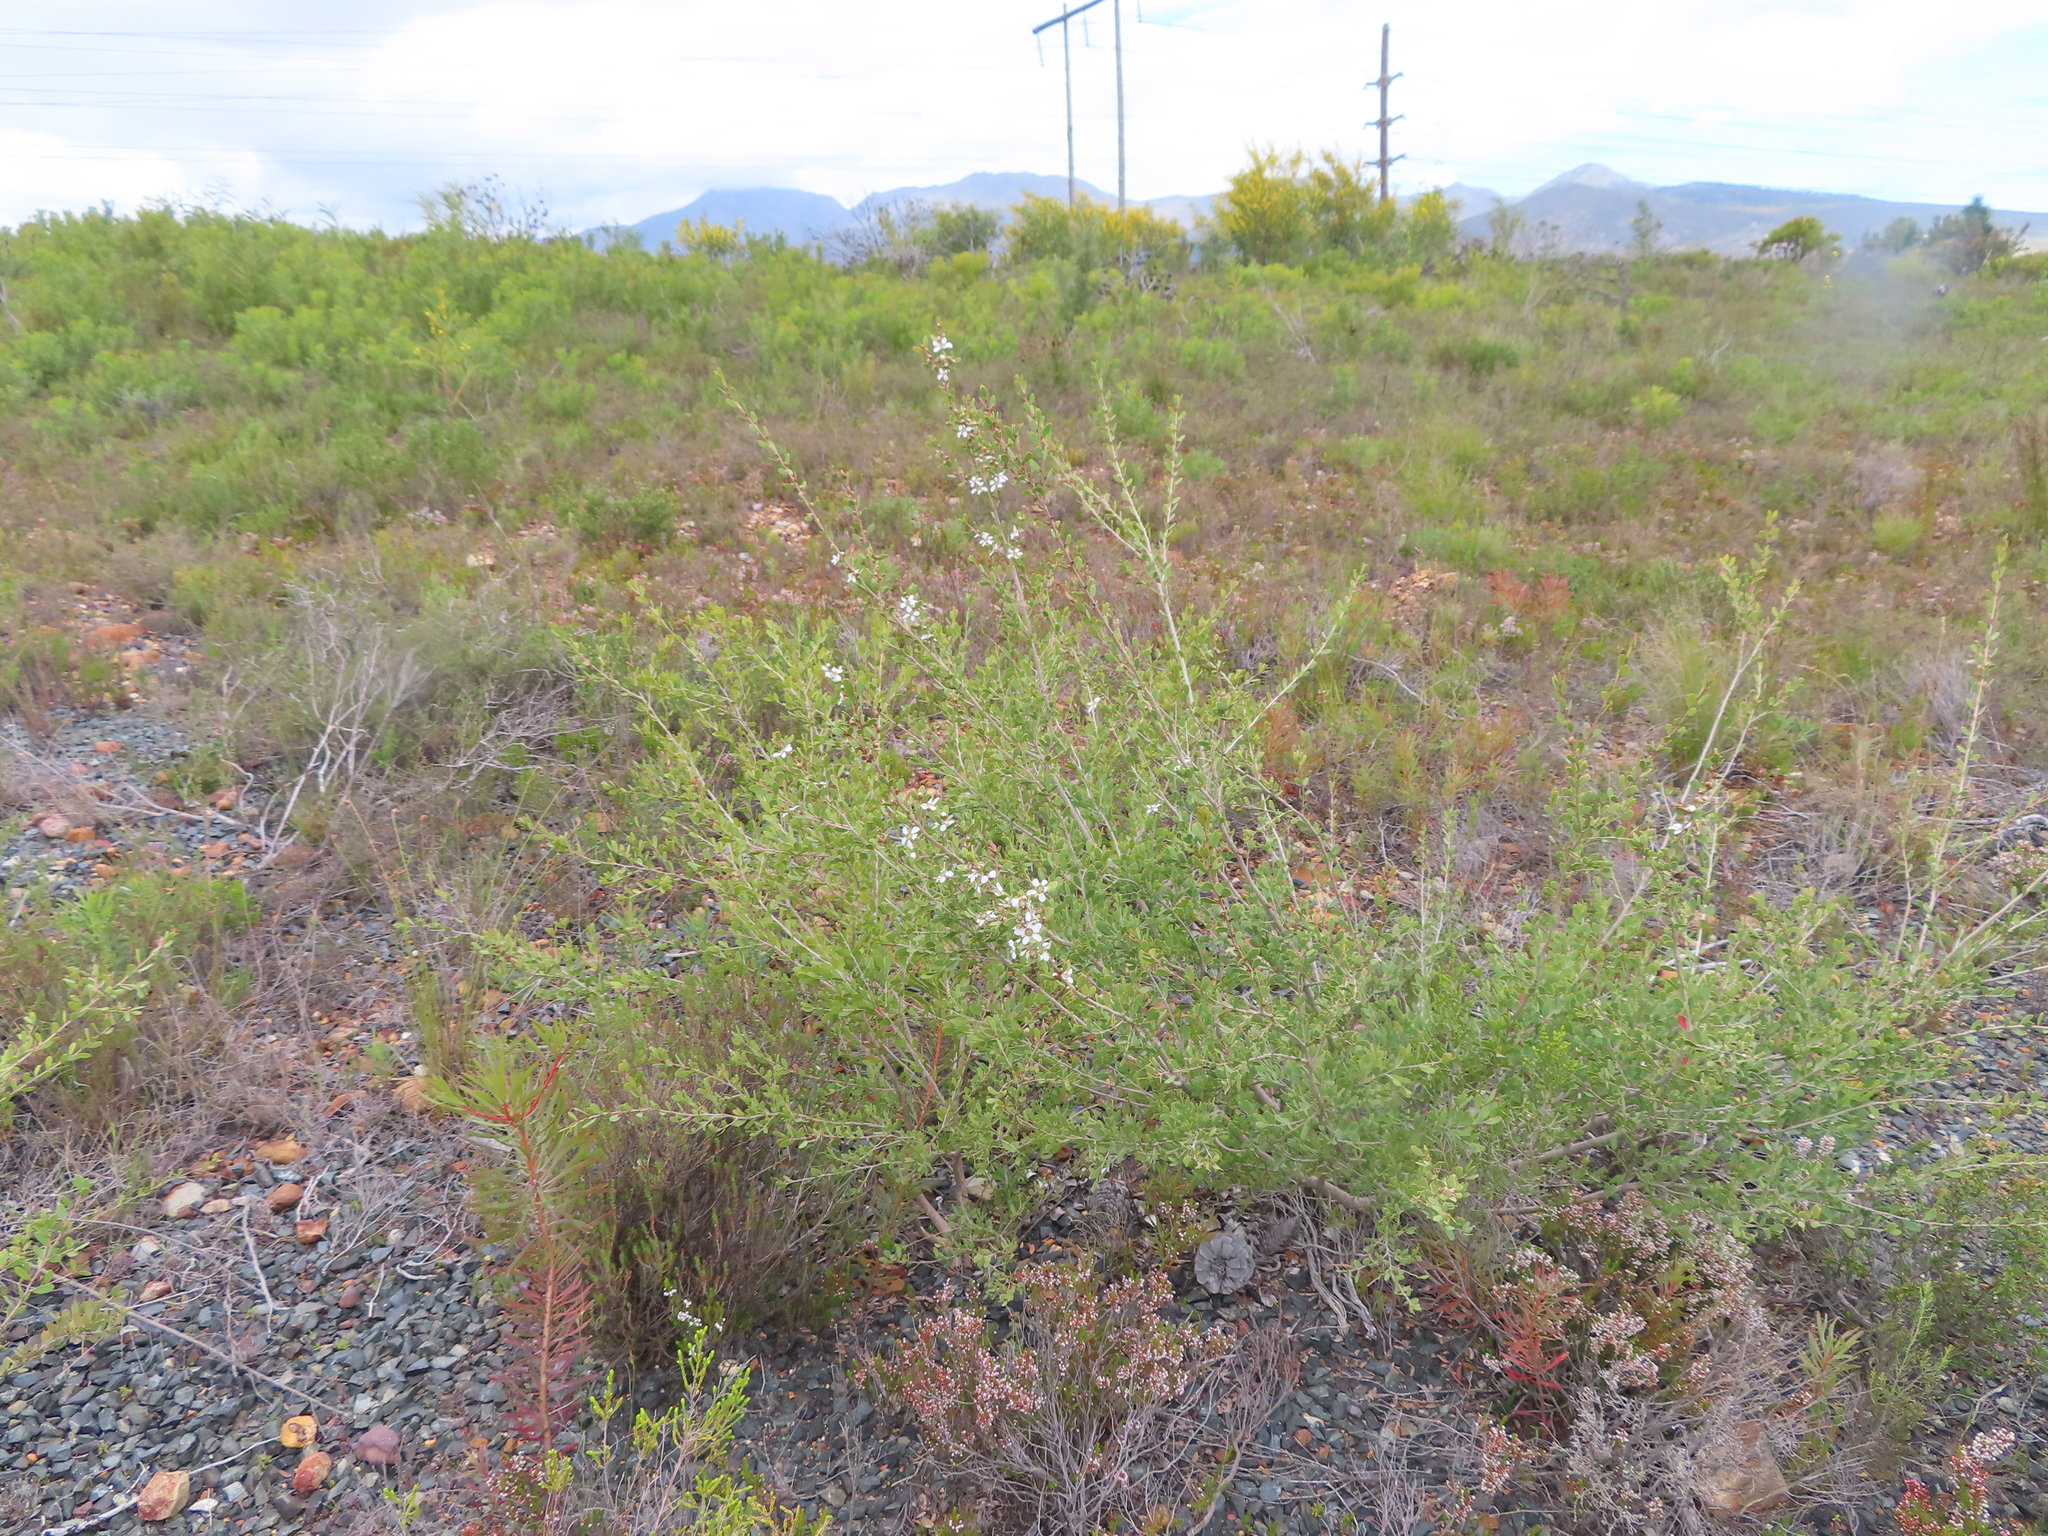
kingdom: Plantae
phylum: Tracheophyta
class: Magnoliopsida
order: Myrtales
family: Myrtaceae
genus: Leptospermum
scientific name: Leptospermum laevigatum
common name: Australian teatree
